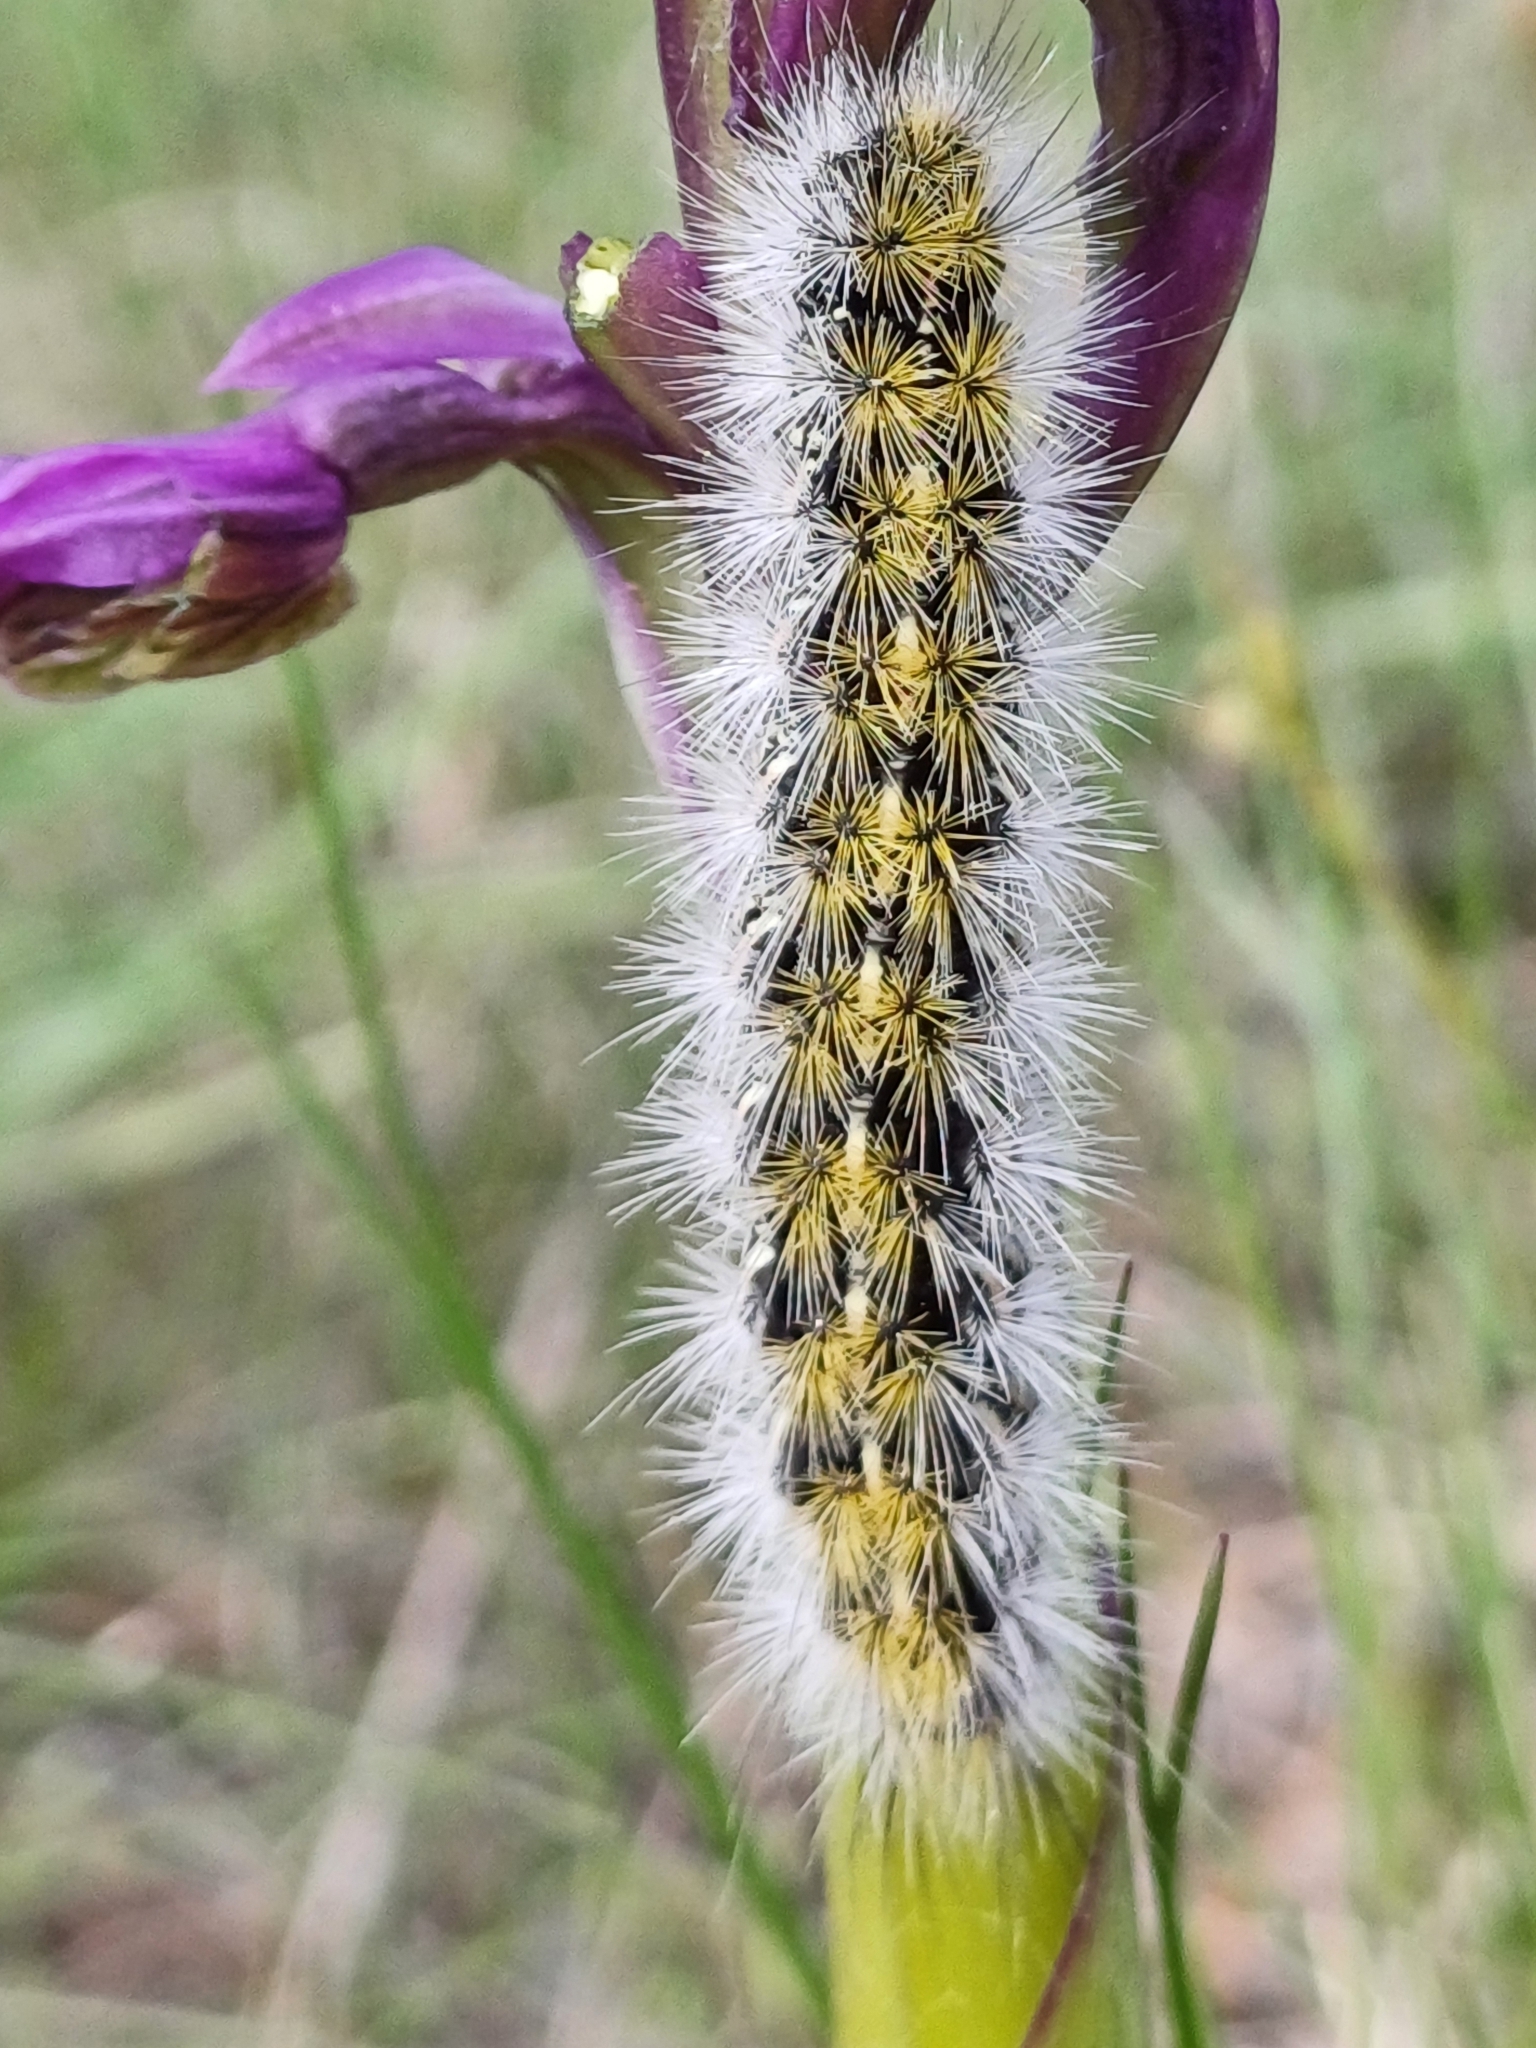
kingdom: Animalia
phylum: Arthropoda
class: Insecta
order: Lepidoptera
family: Erebidae
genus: Rhyparia
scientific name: Rhyparia purpurata
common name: Purple tiger
